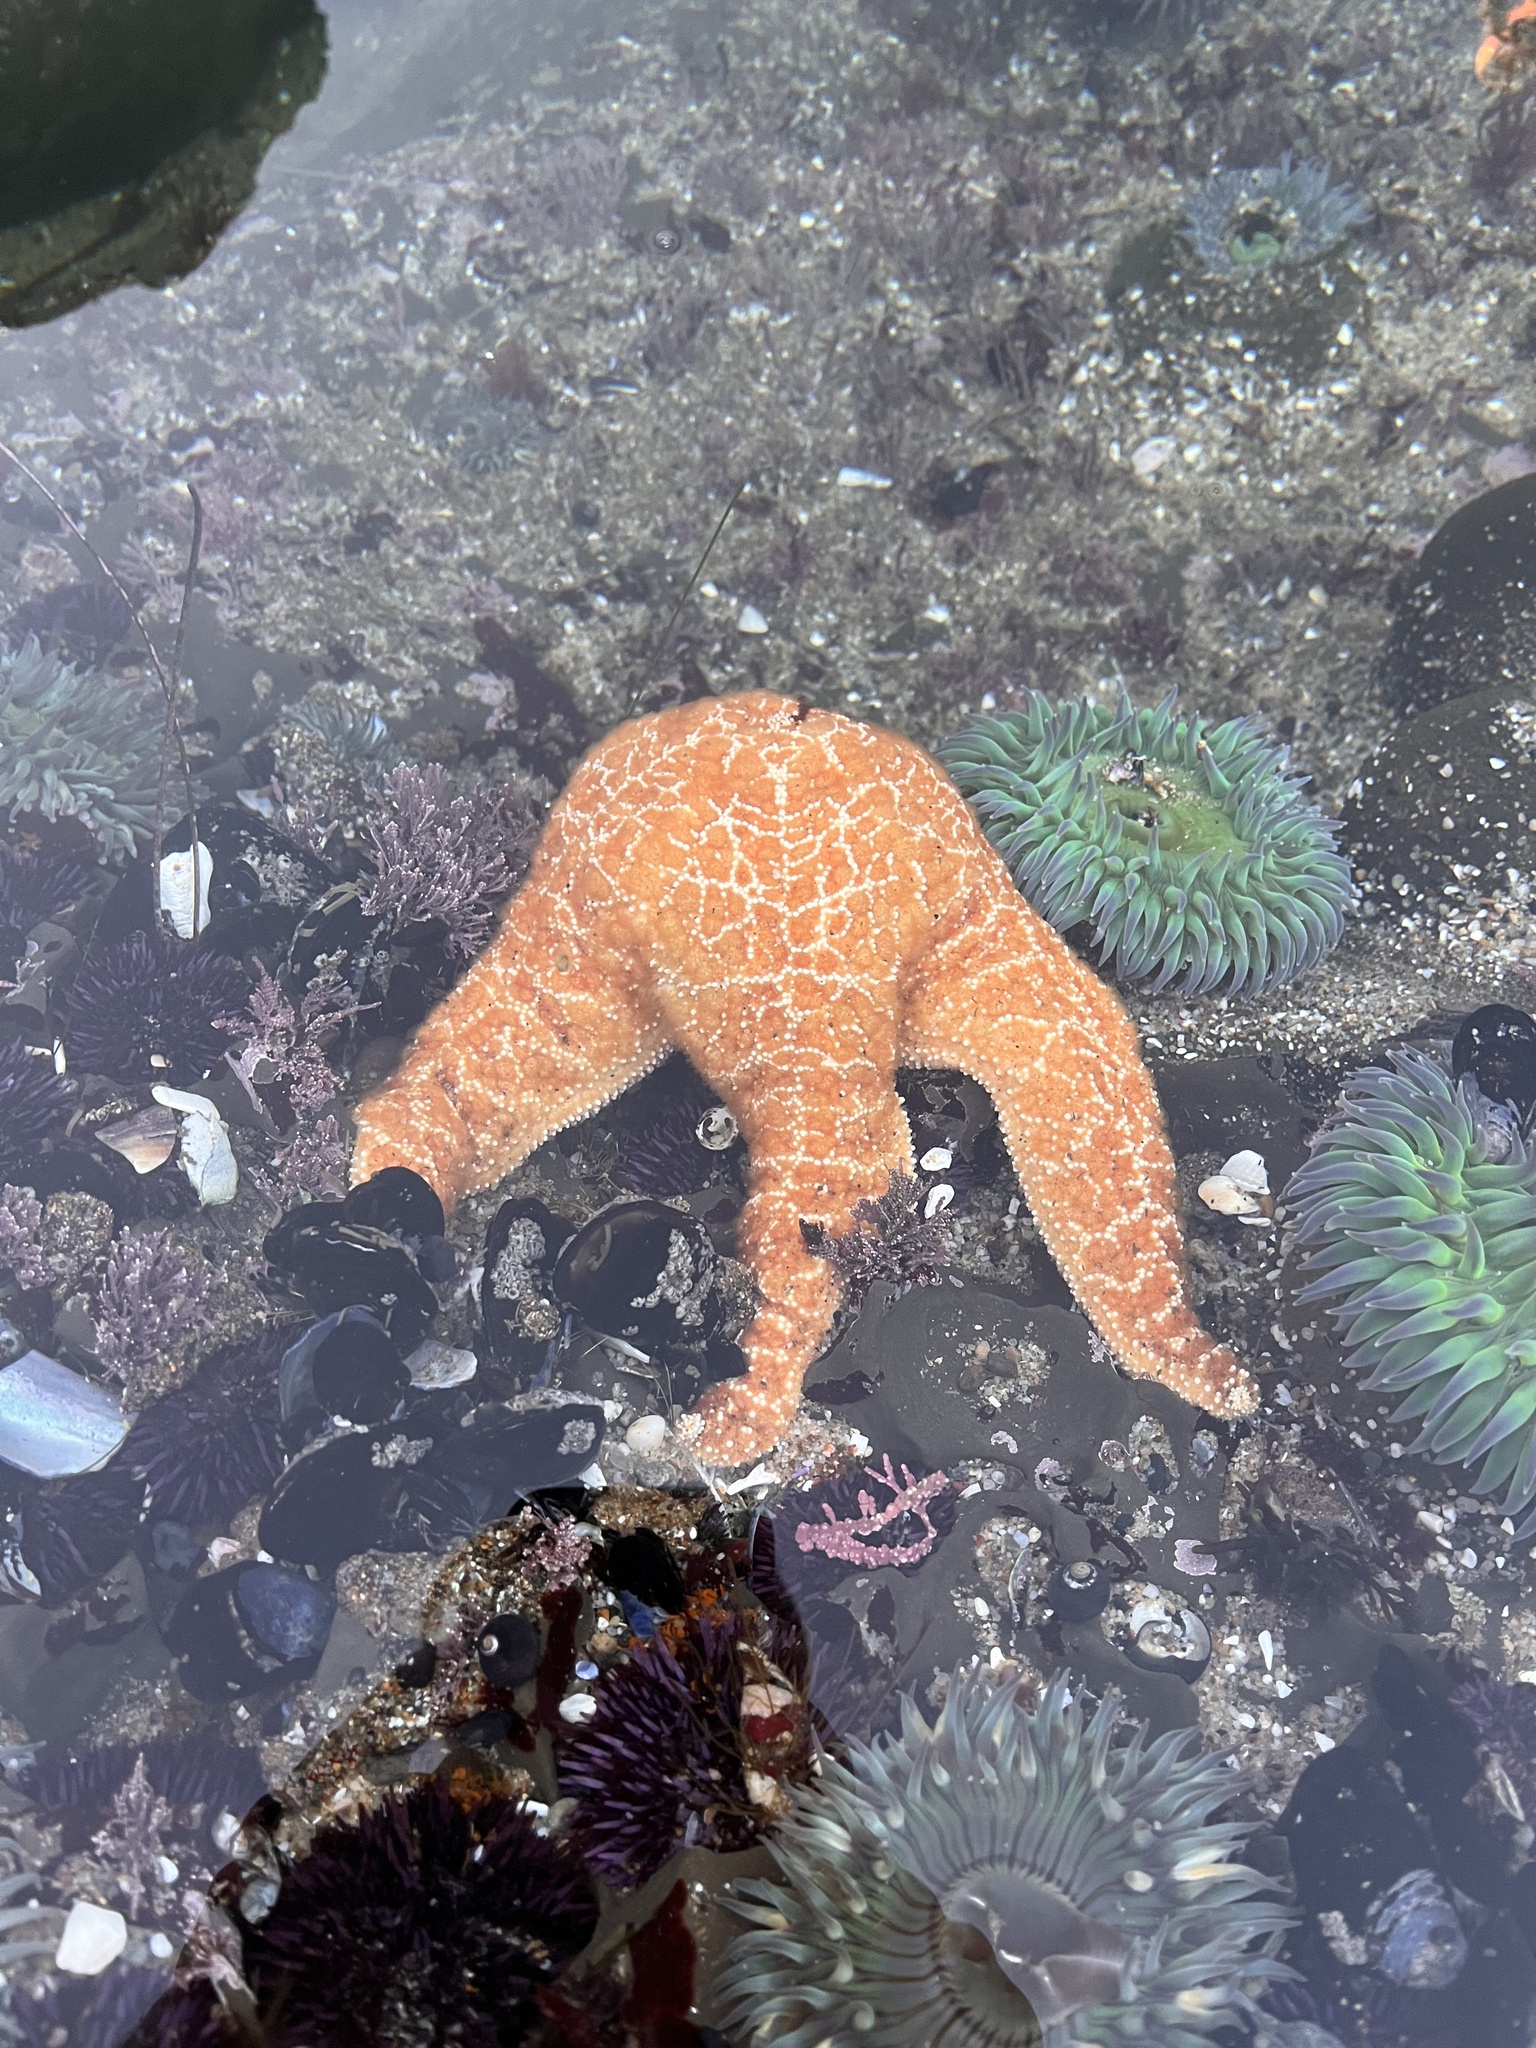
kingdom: Animalia
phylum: Echinodermata
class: Asteroidea
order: Forcipulatida
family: Asteriidae
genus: Pisaster
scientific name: Pisaster ochraceus
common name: Ochre stars
